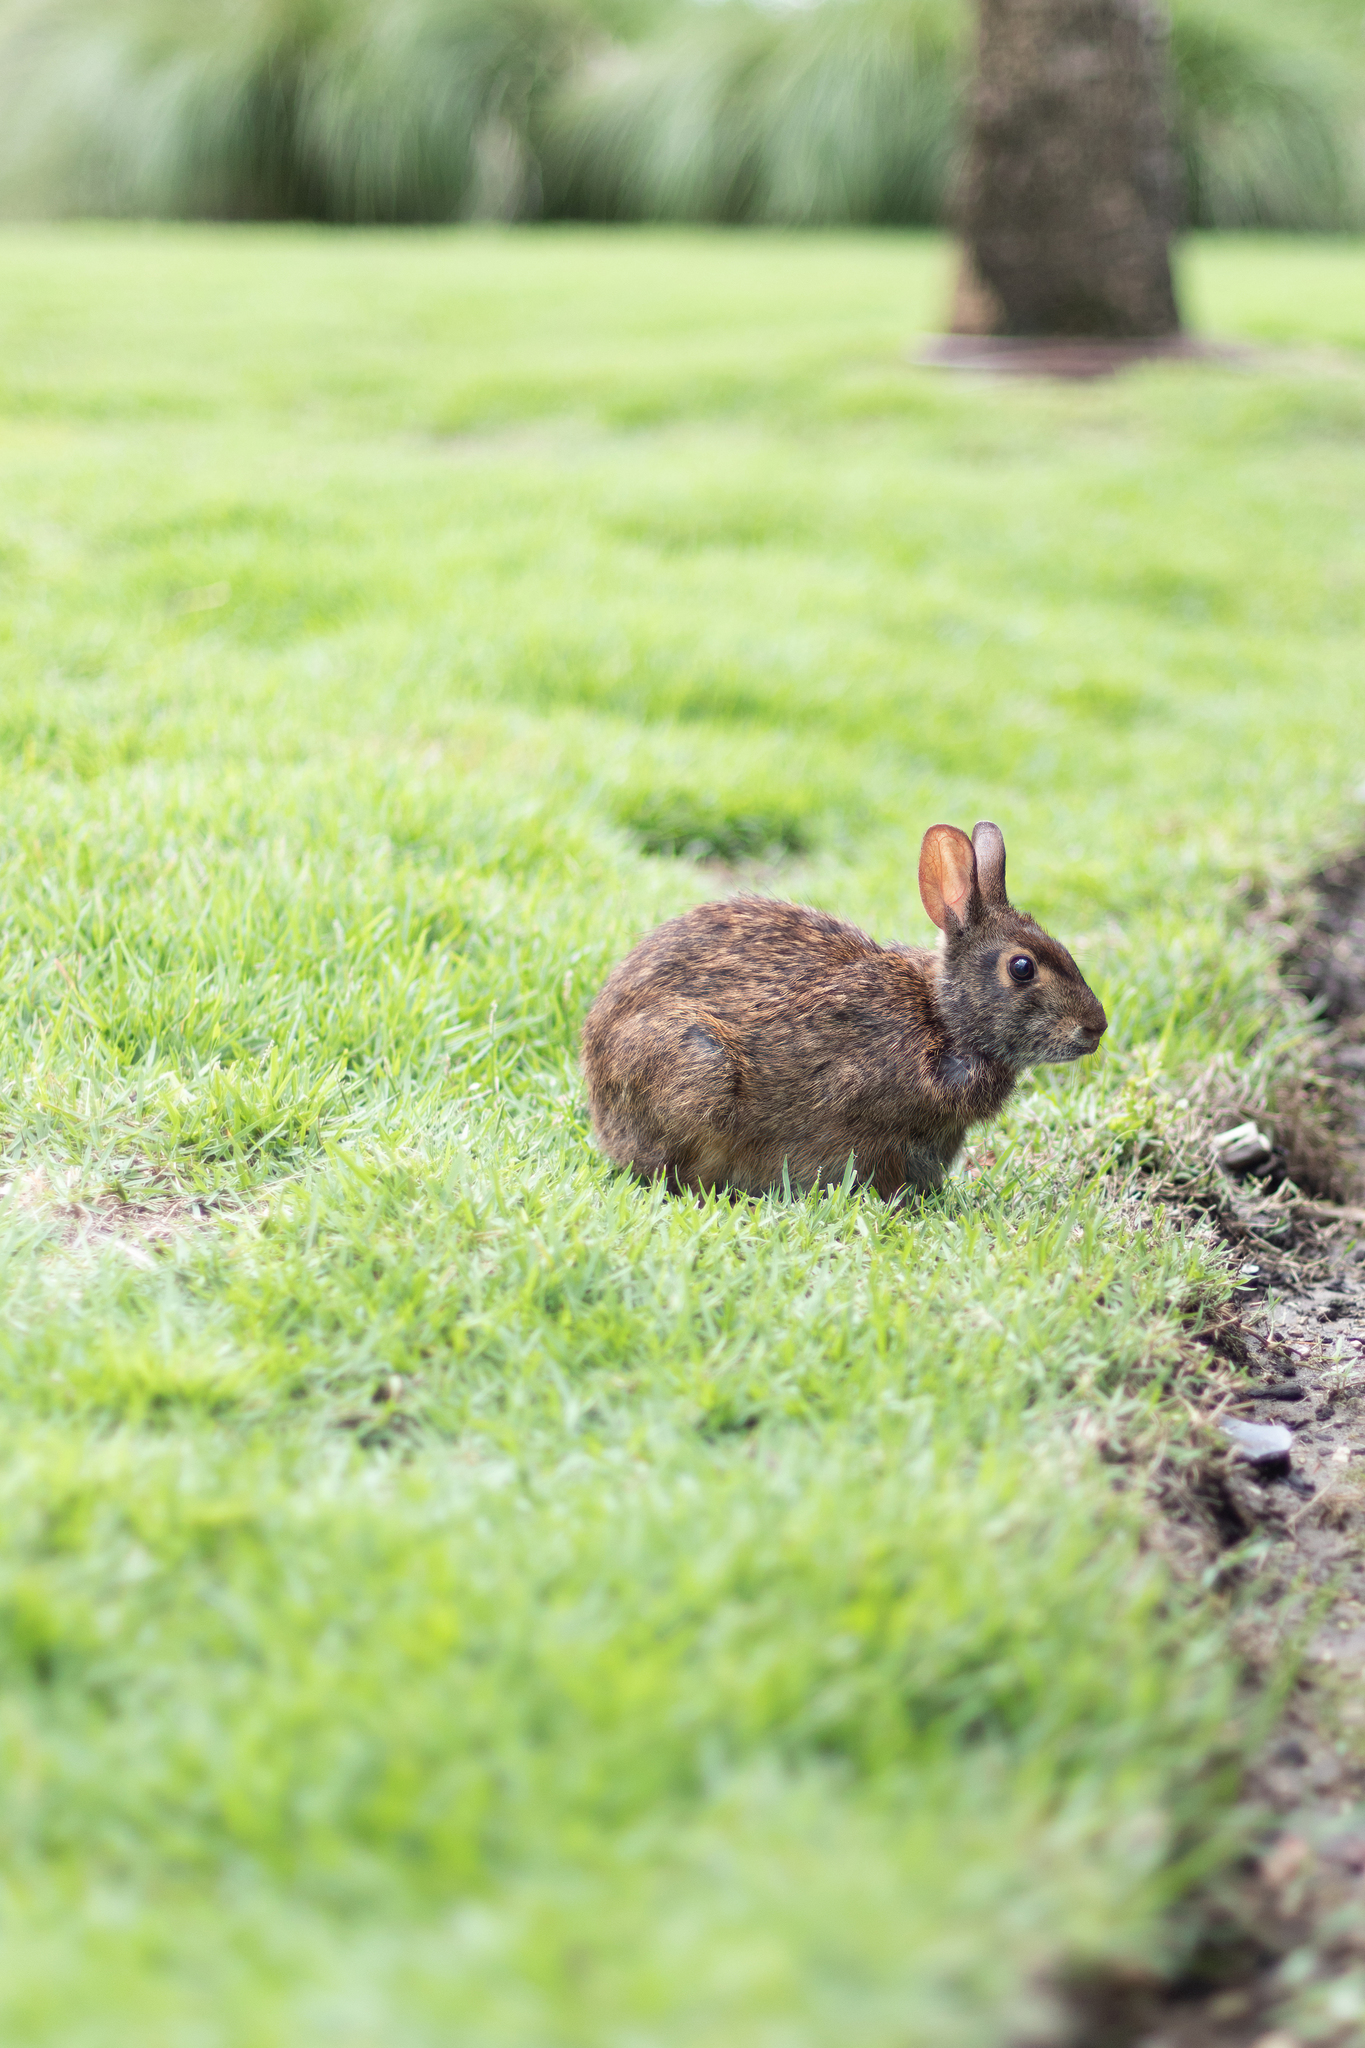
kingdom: Animalia
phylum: Chordata
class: Mammalia
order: Lagomorpha
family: Leporidae
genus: Sylvilagus
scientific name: Sylvilagus palustris
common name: Marsh rabbit
